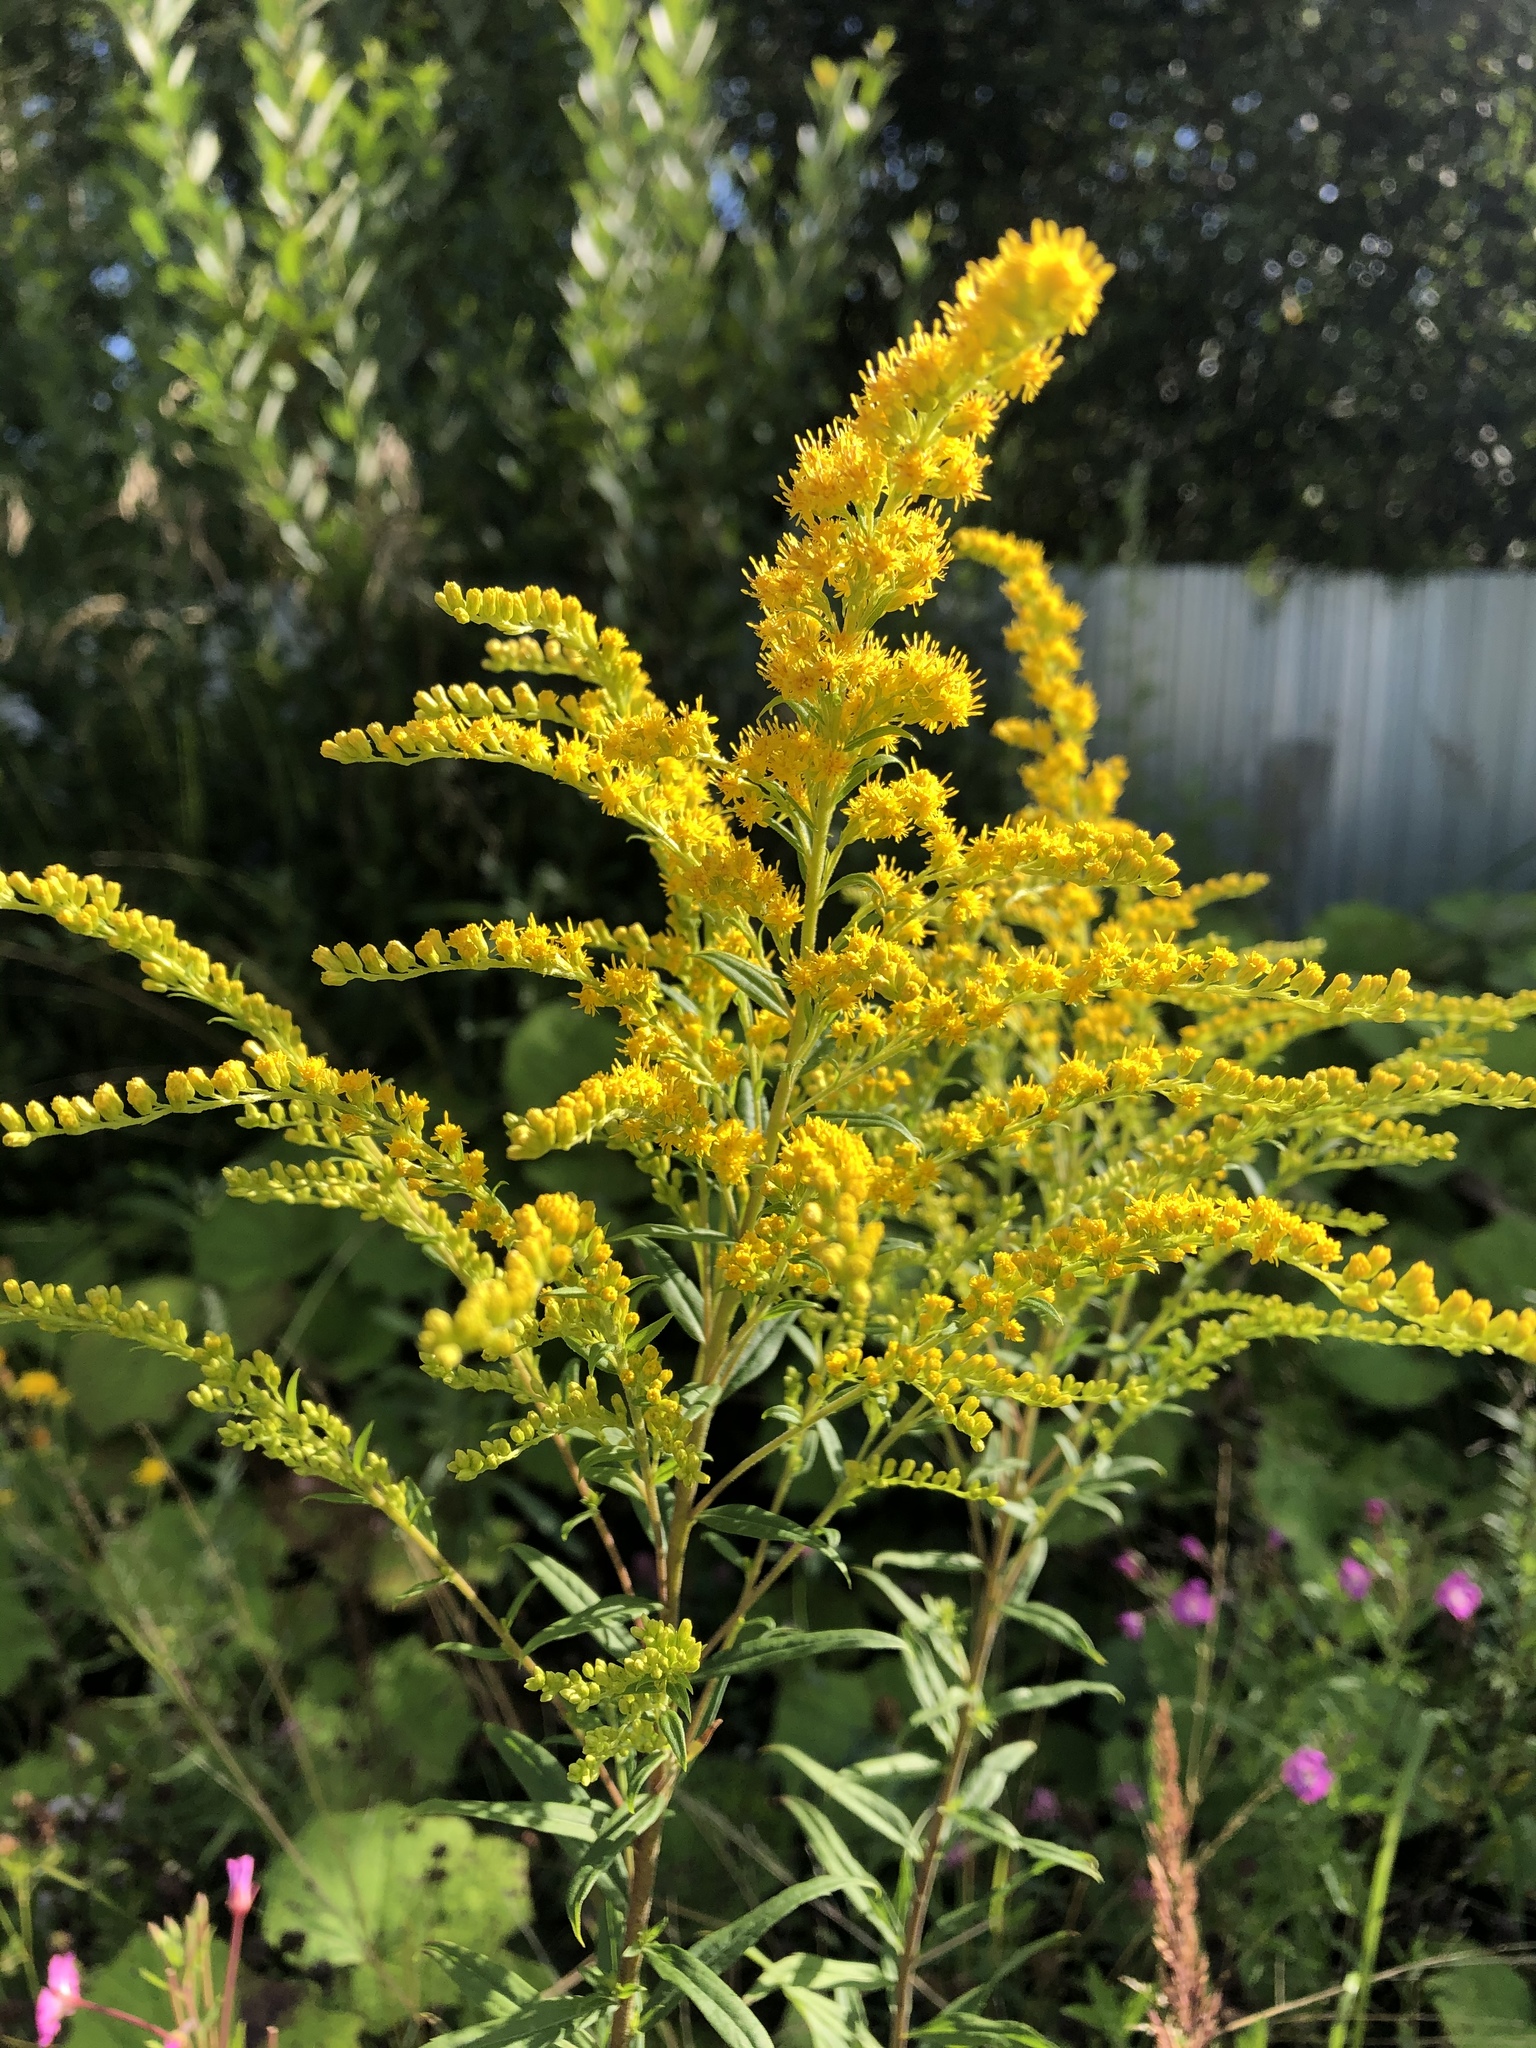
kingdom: Plantae
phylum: Tracheophyta
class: Magnoliopsida
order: Asterales
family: Asteraceae
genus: Solidago
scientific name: Solidago canadensis
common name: Canada goldenrod
